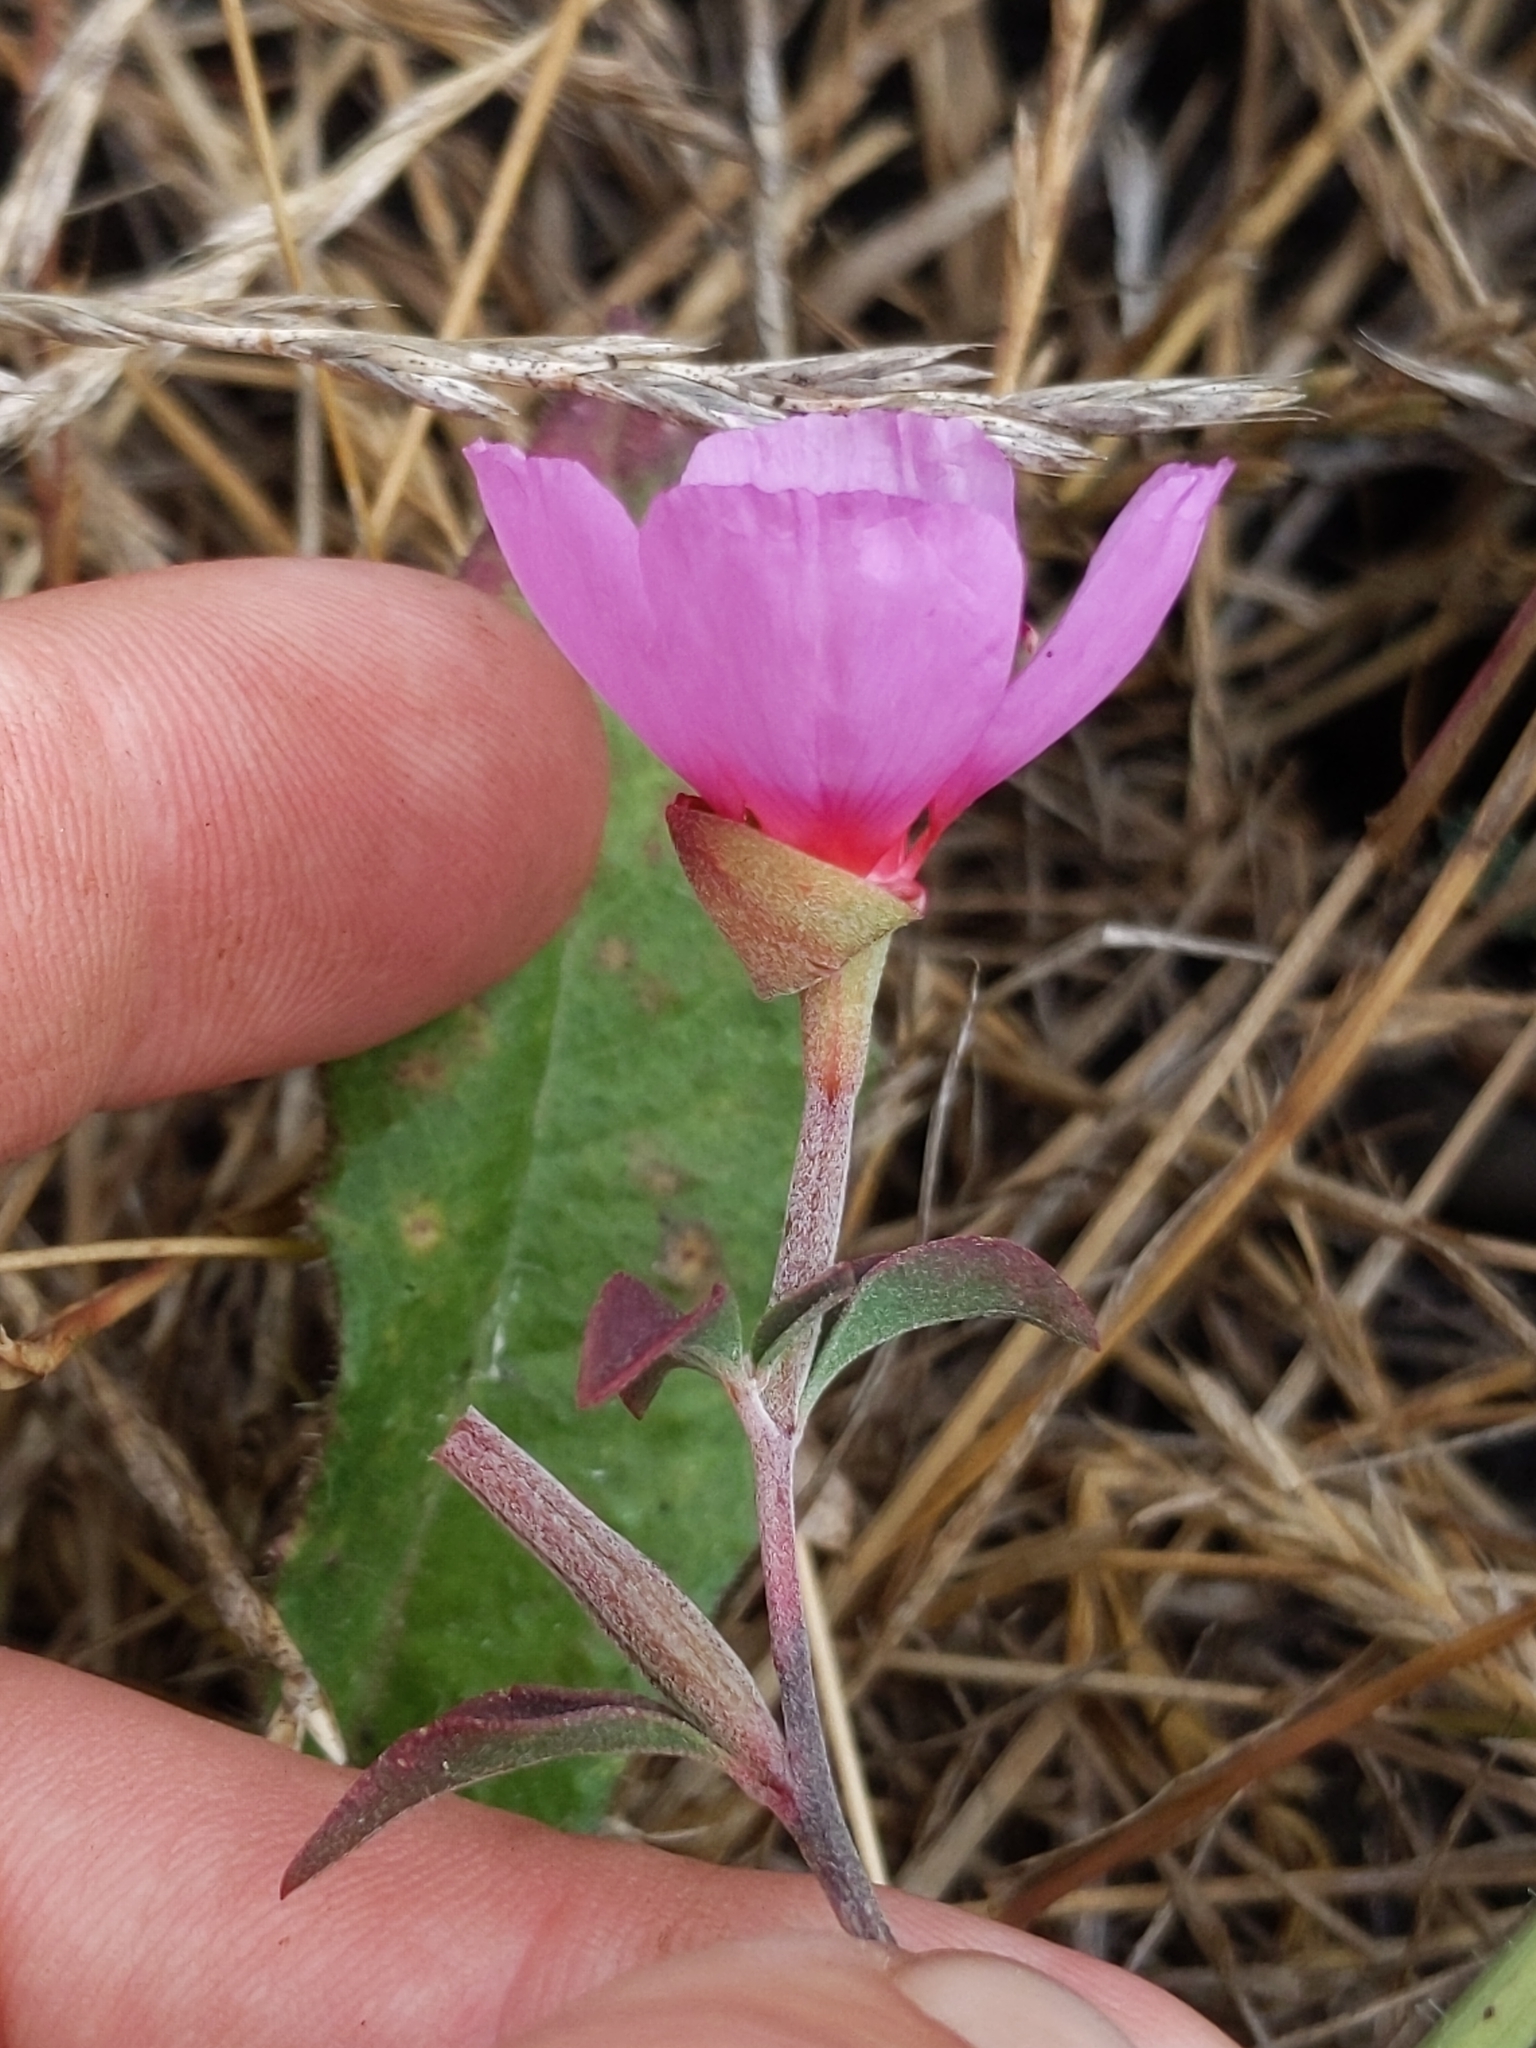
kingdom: Plantae
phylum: Tracheophyta
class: Magnoliopsida
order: Myrtales
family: Onagraceae
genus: Clarkia
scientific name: Clarkia rubicunda
